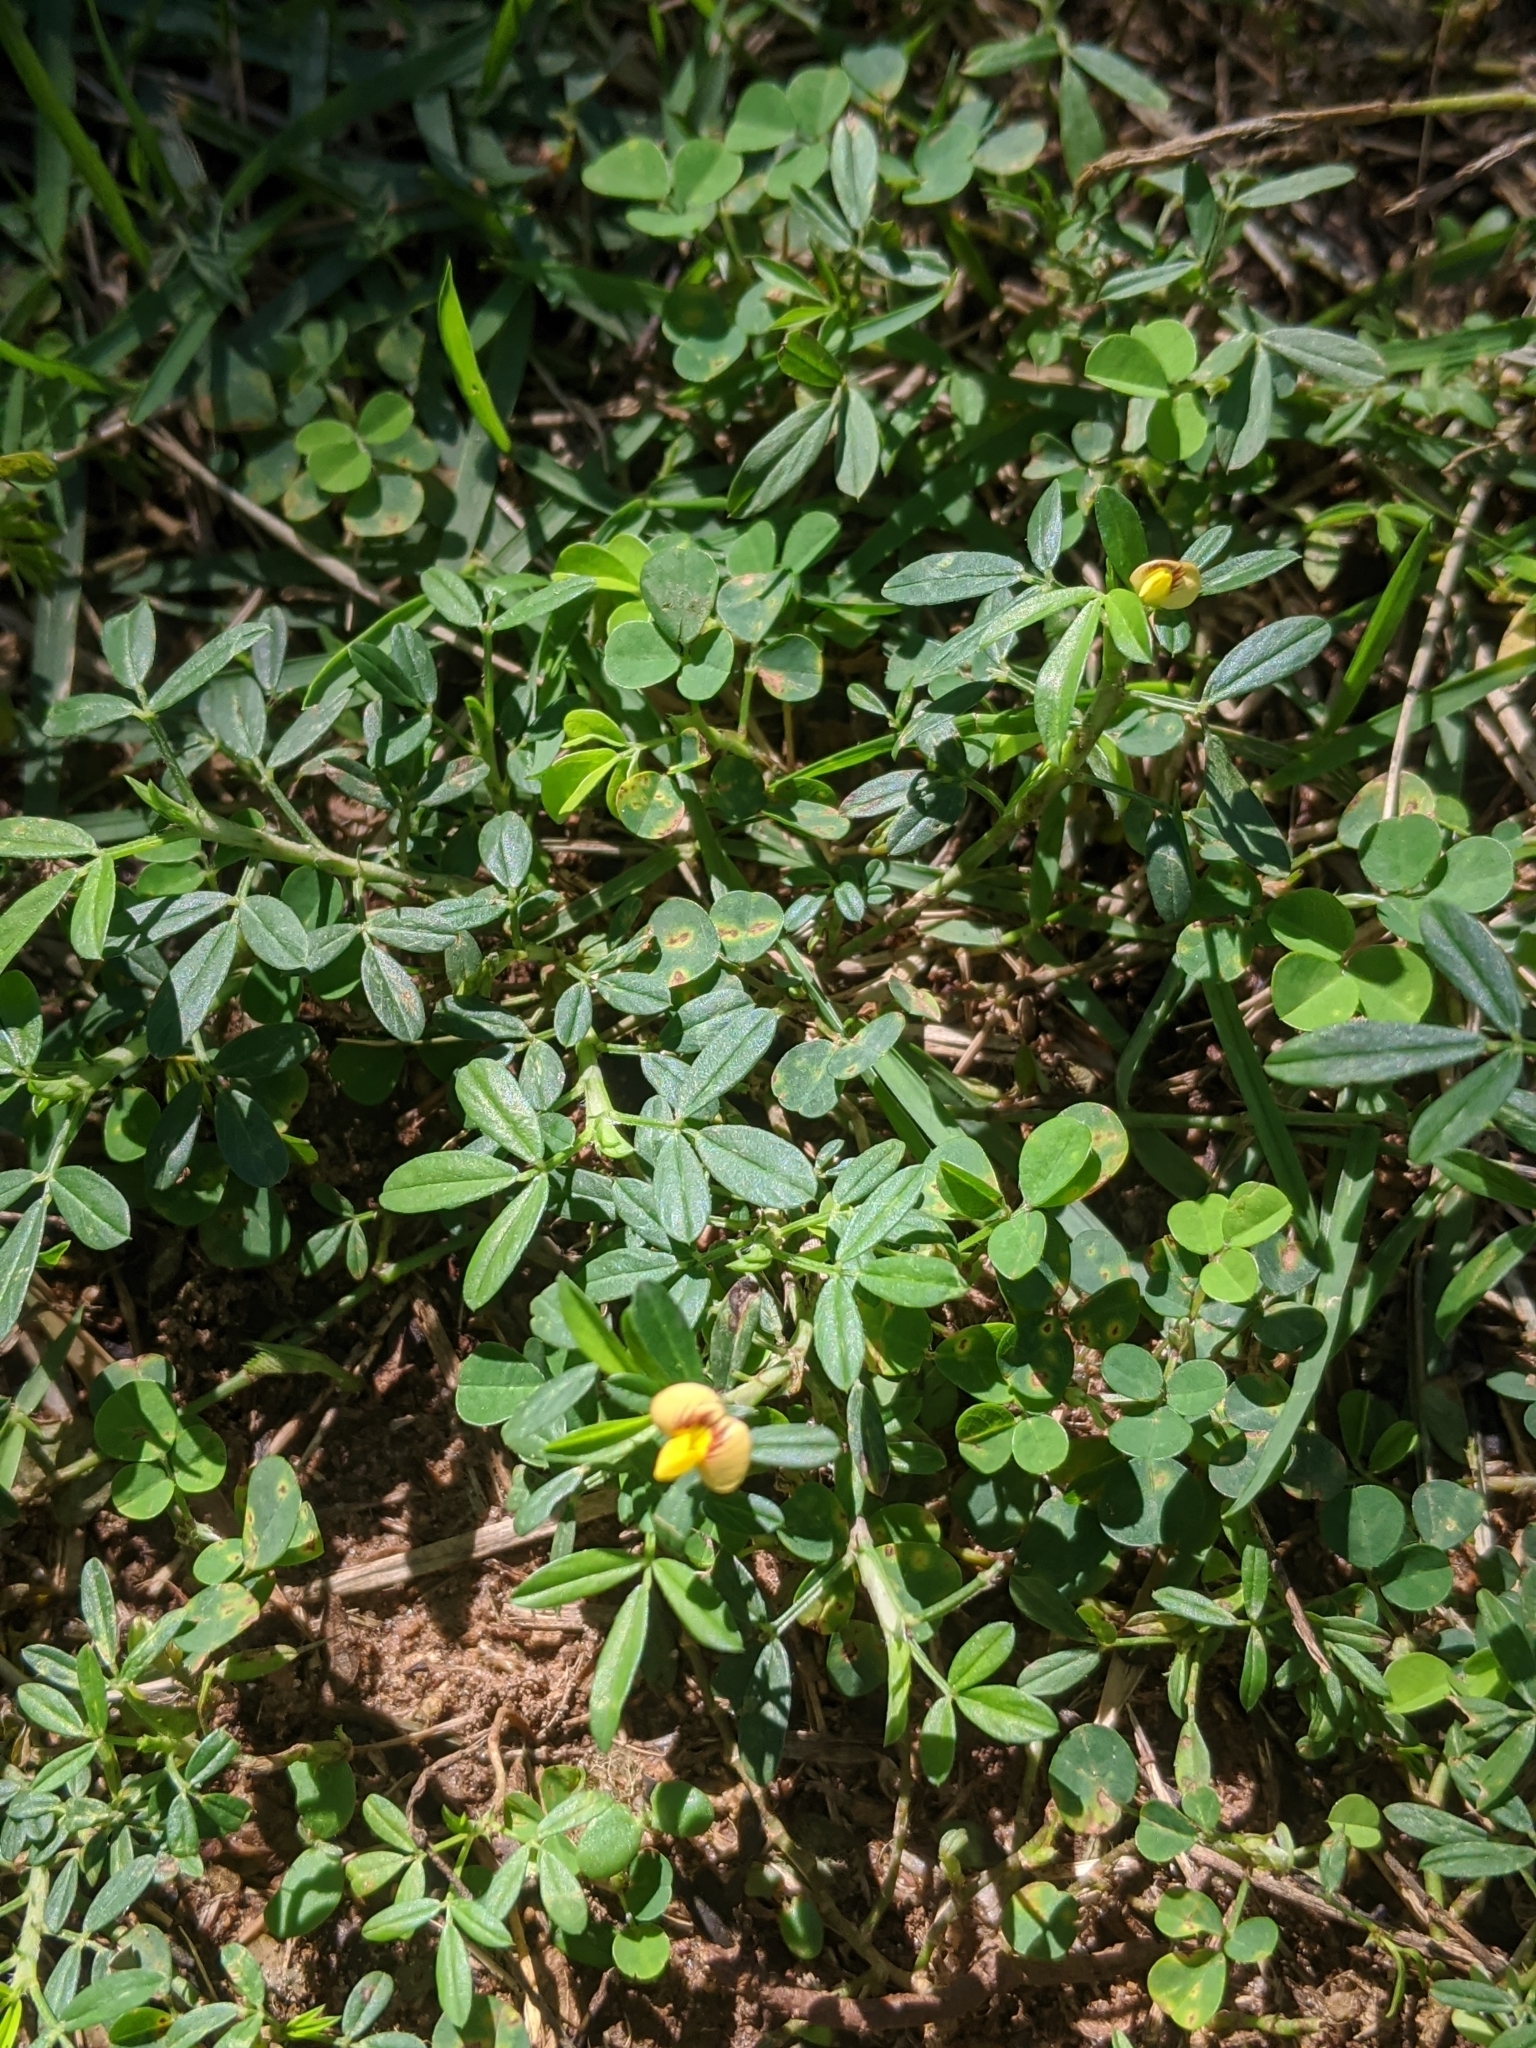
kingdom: Plantae
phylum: Tracheophyta
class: Magnoliopsida
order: Fabales
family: Fabaceae
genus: Stylosanthes
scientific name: Stylosanthes hamata
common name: Cheesytoes
